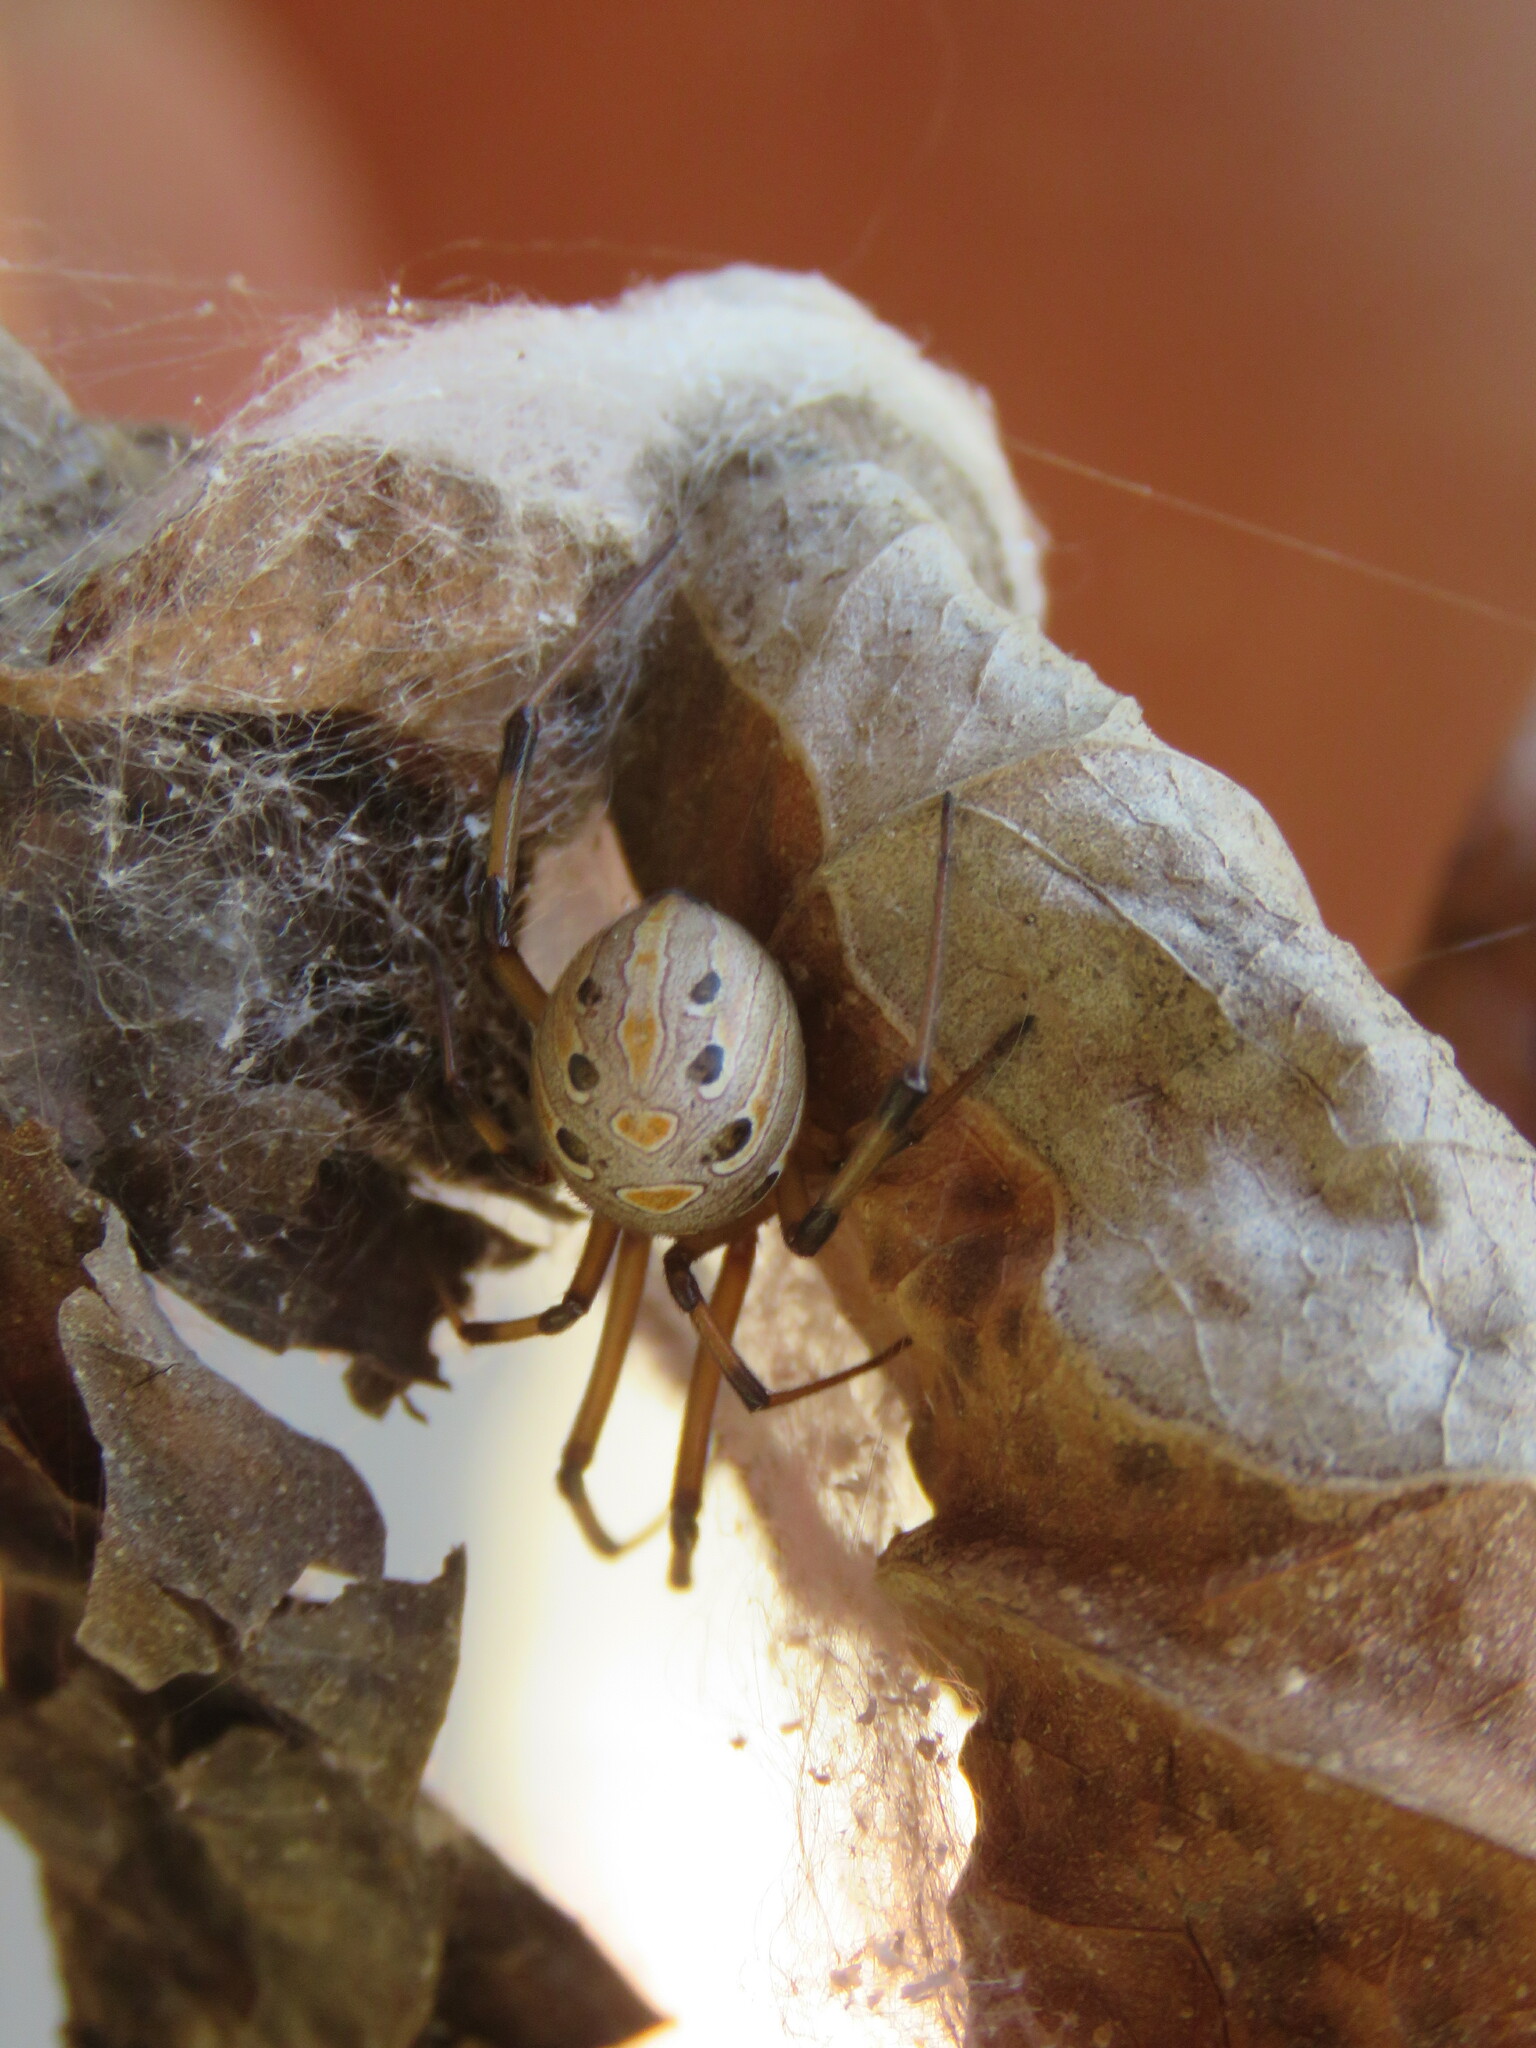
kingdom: Animalia
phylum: Arthropoda
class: Arachnida
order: Araneae
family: Theridiidae
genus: Latrodectus
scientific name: Latrodectus geometricus
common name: Brown widow spider
